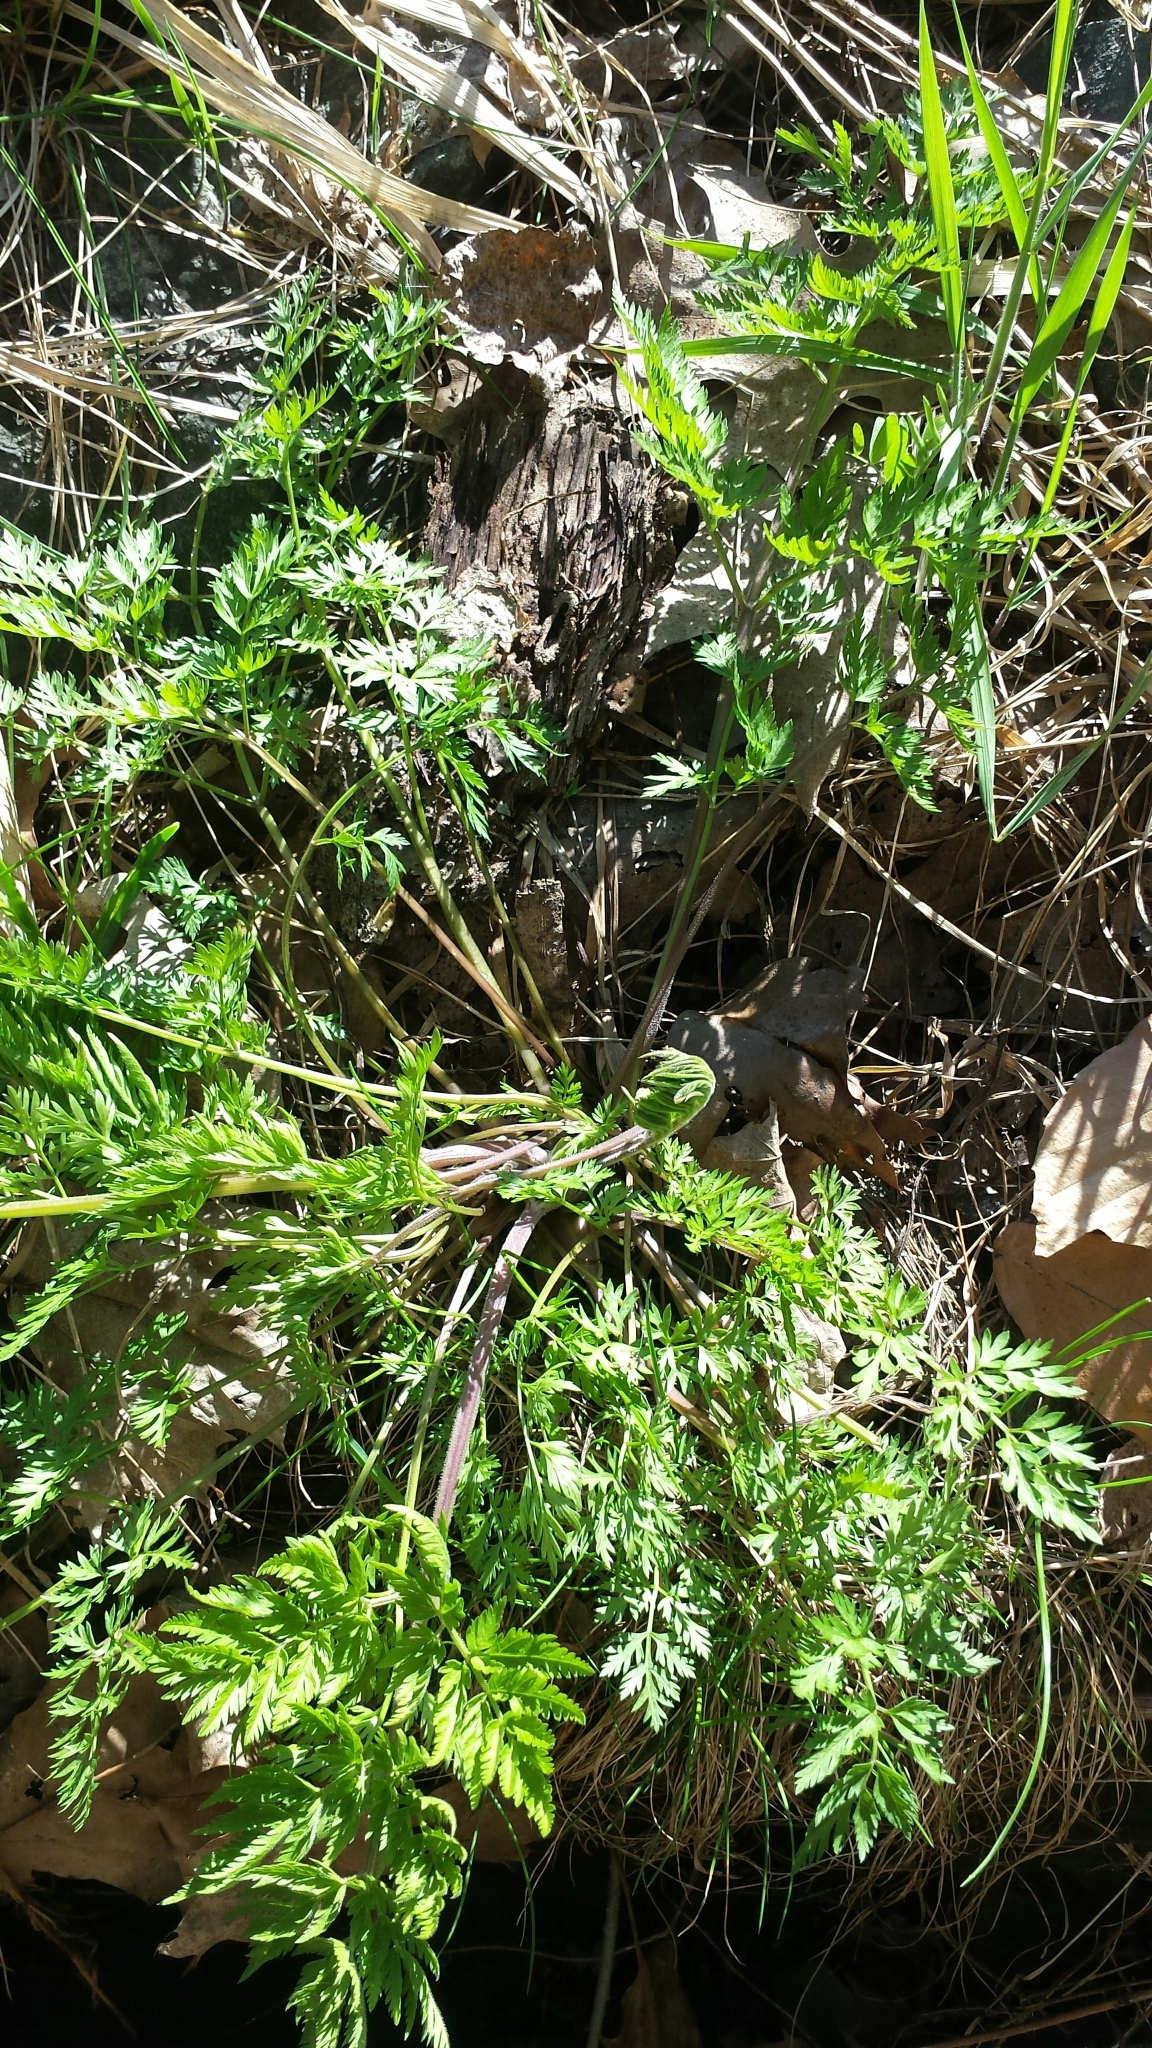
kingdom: Plantae
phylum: Tracheophyta
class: Magnoliopsida
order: Apiales
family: Apiaceae
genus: Anthriscus
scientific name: Anthriscus sylvestris
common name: Cow parsley
